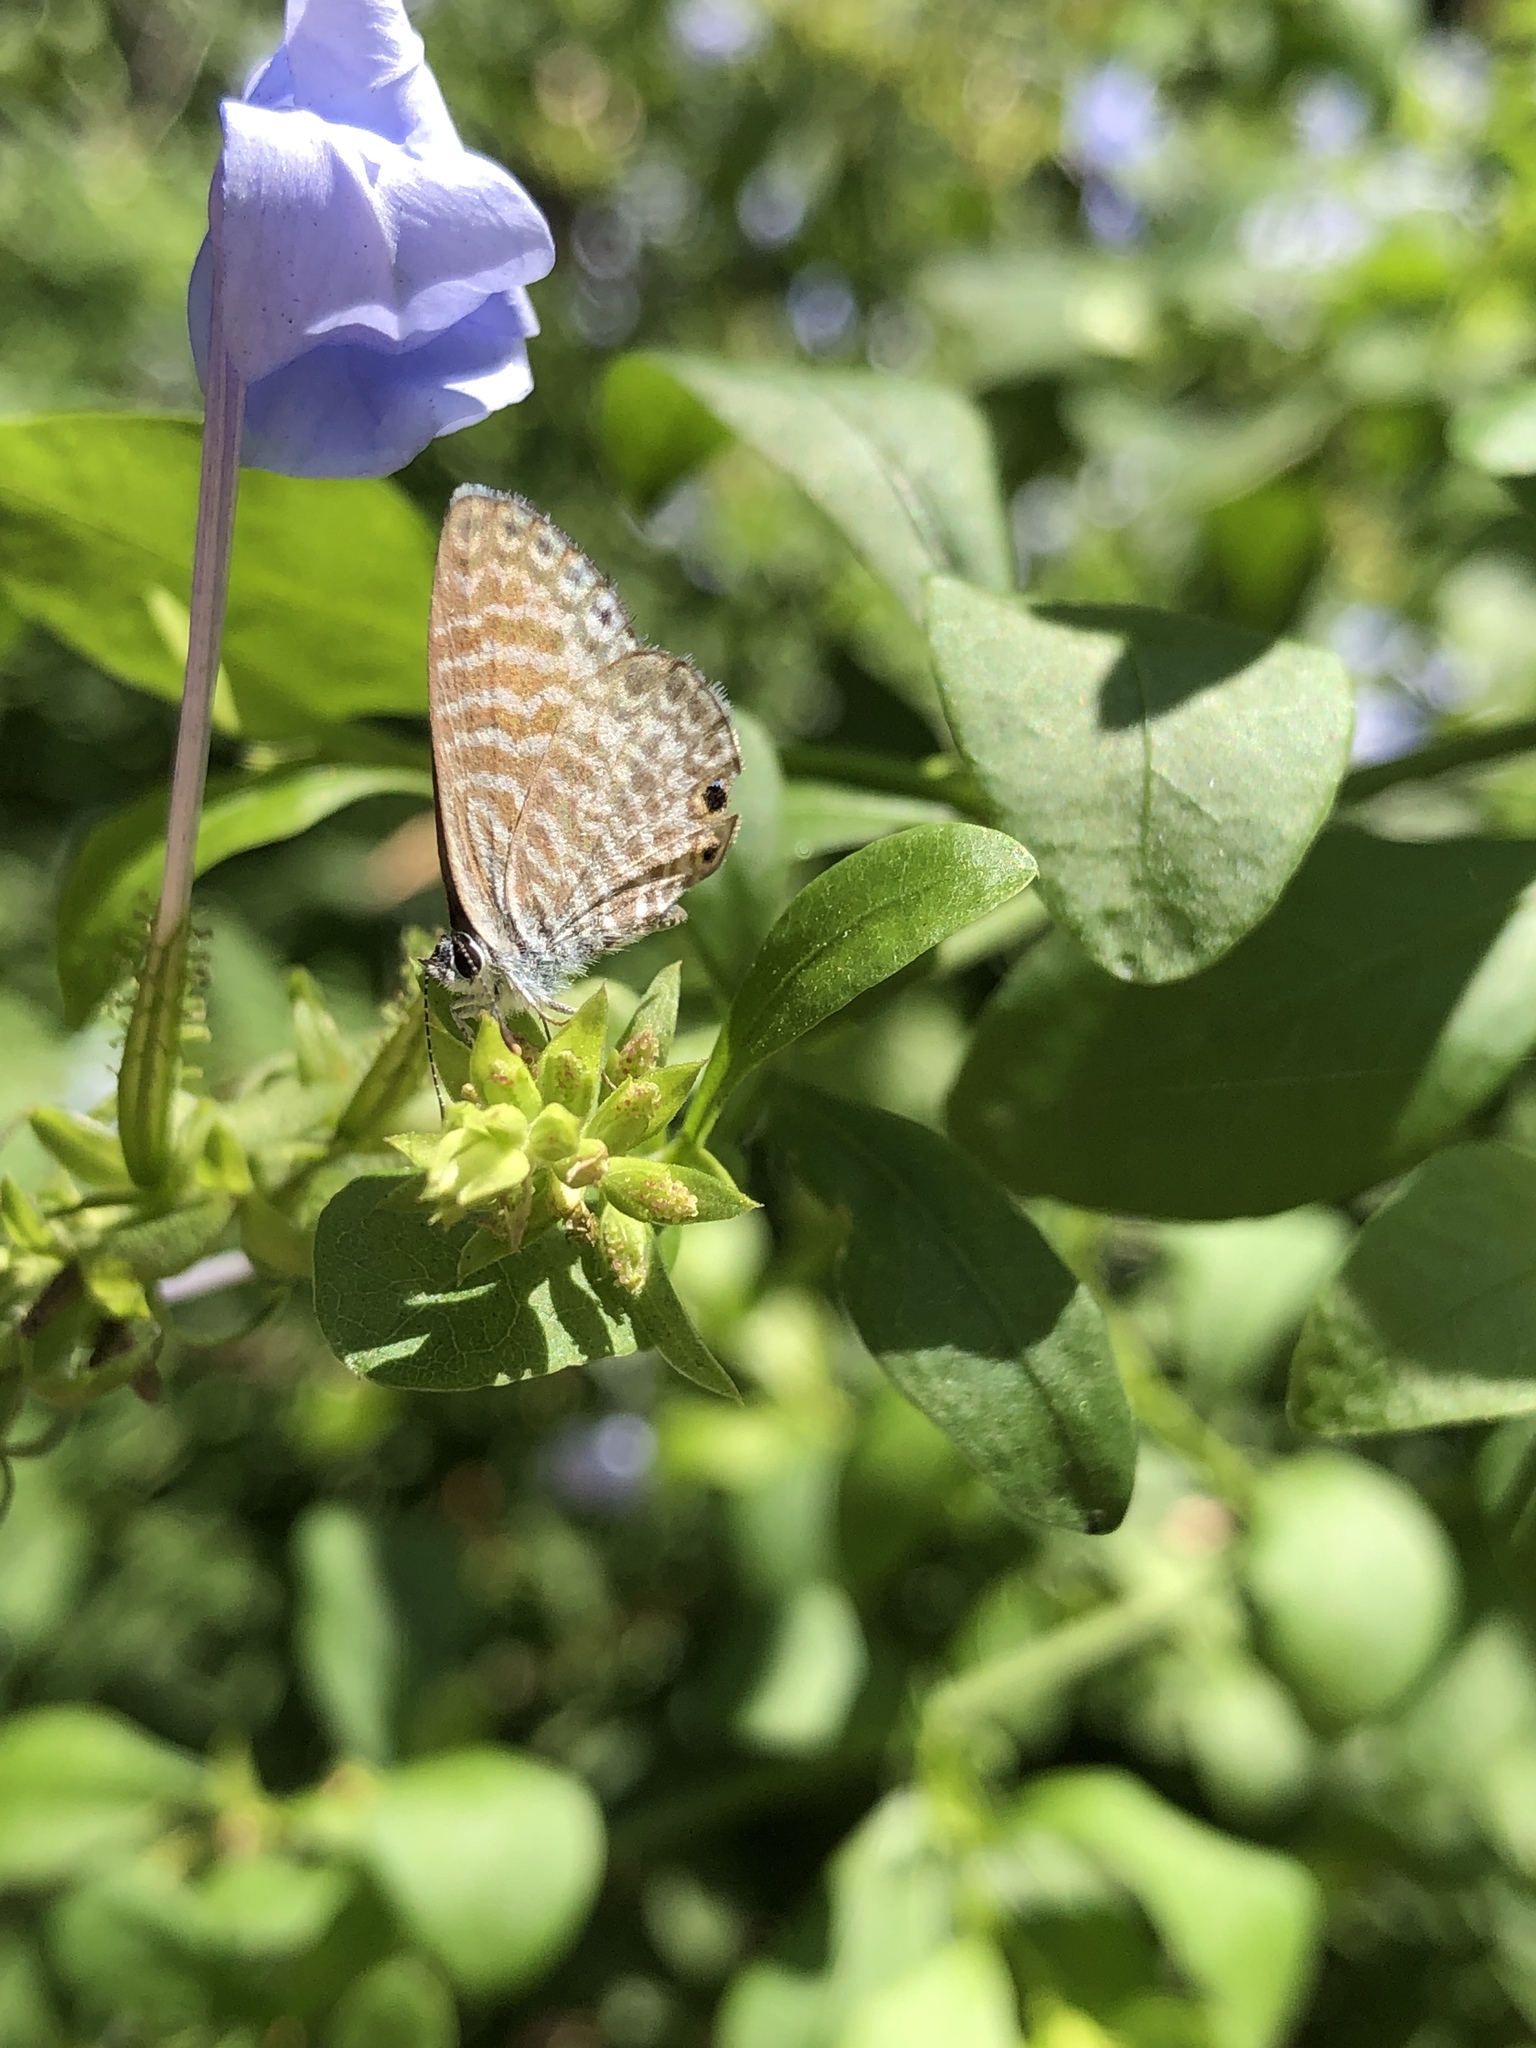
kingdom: Animalia
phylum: Arthropoda
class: Insecta
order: Lepidoptera
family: Lycaenidae
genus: Leptotes
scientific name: Leptotes marina
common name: Marine blue
